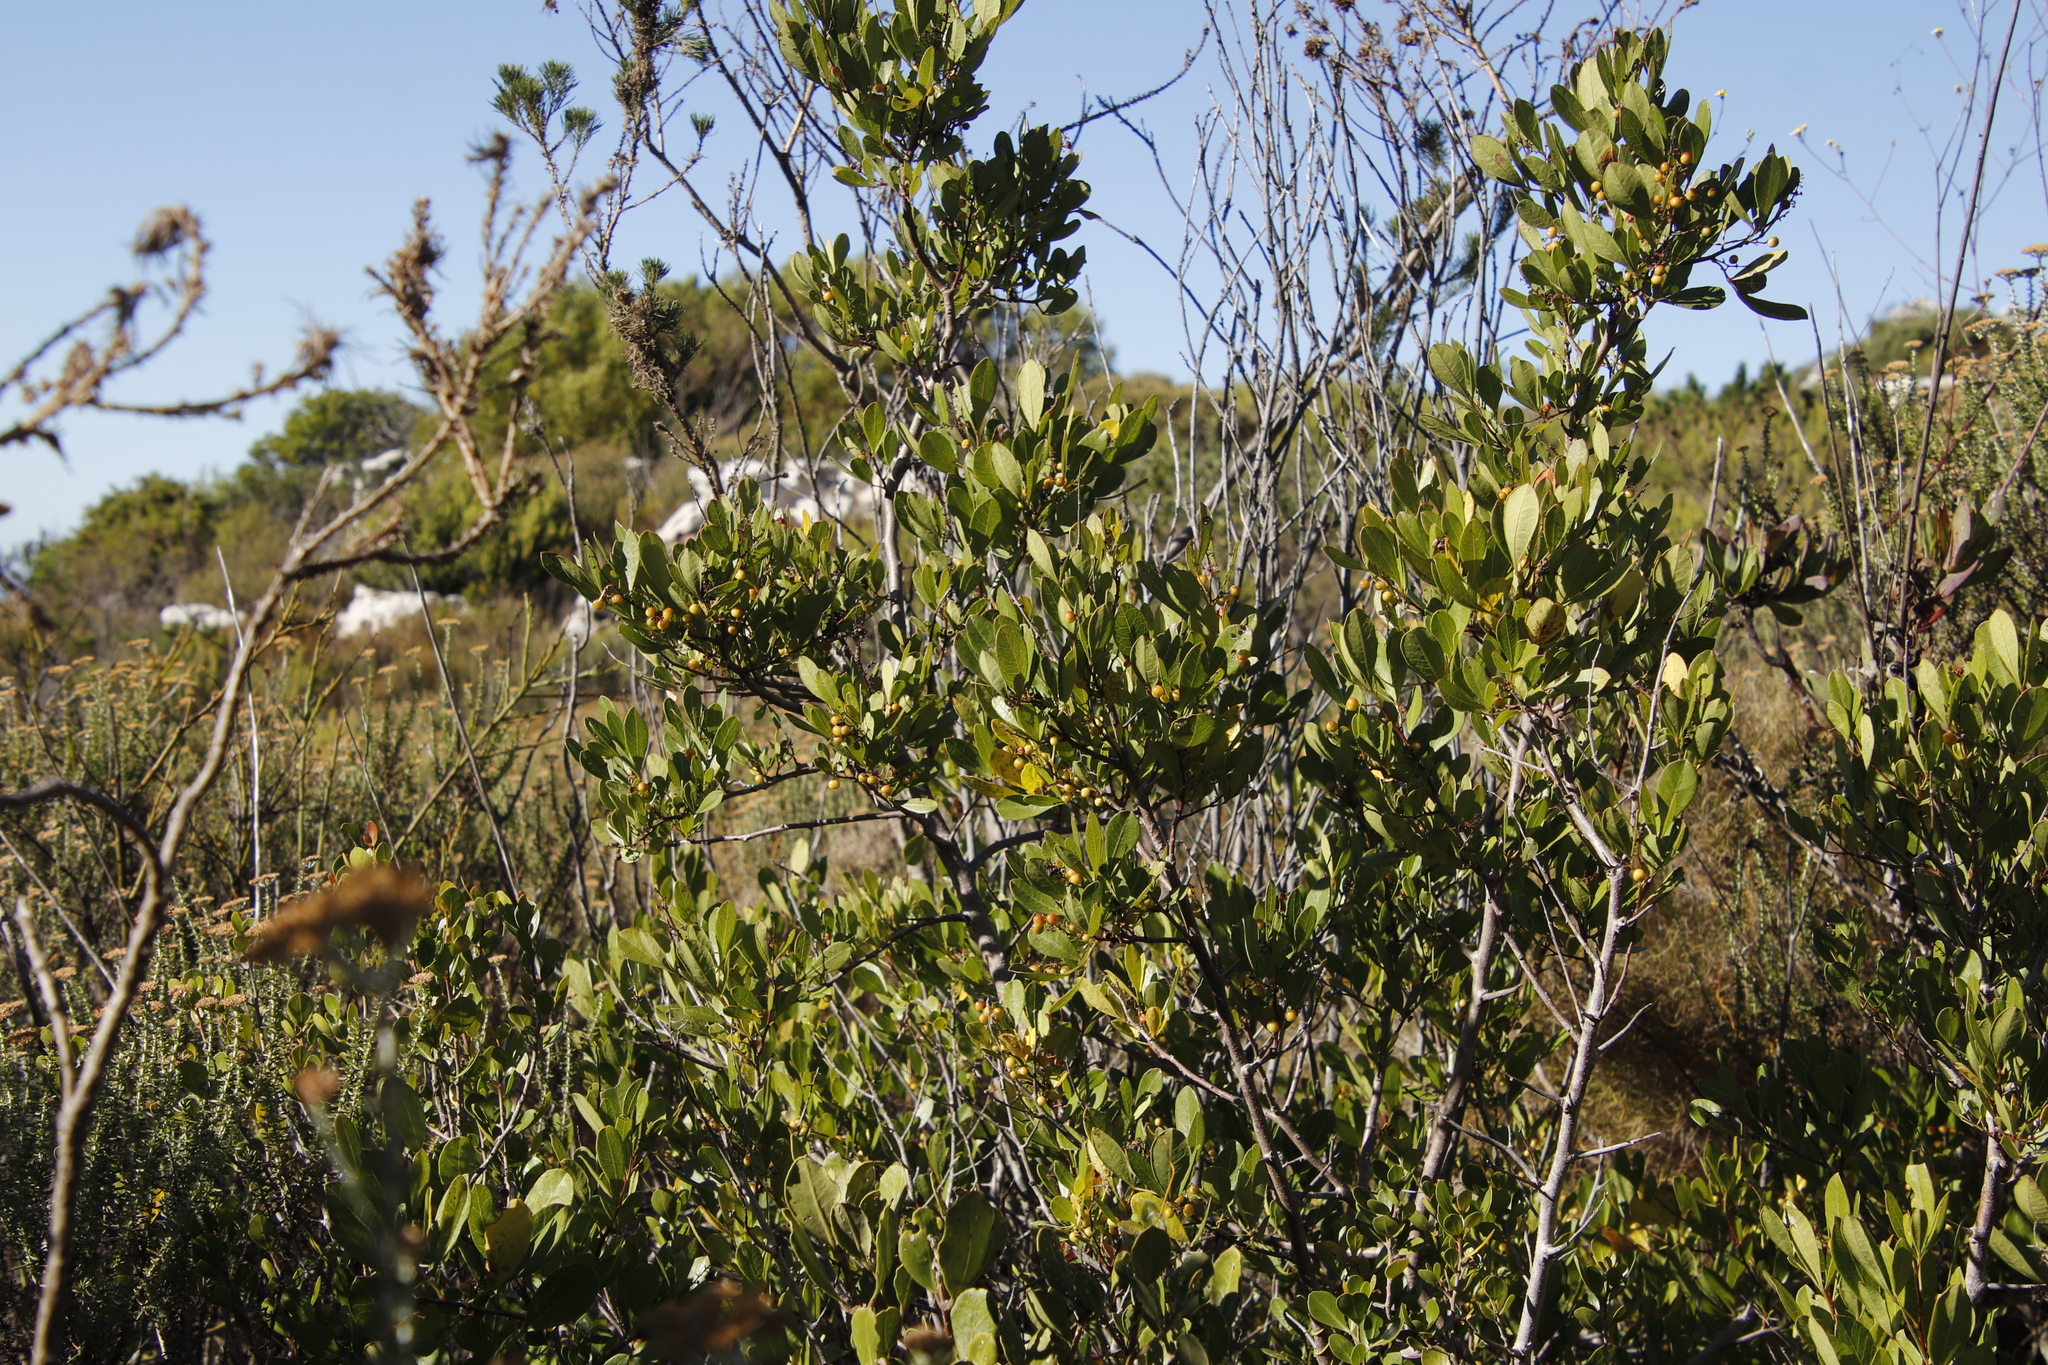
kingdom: Plantae
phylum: Tracheophyta
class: Magnoliopsida
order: Sapindales
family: Anacardiaceae
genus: Searsia
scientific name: Searsia laevigata
